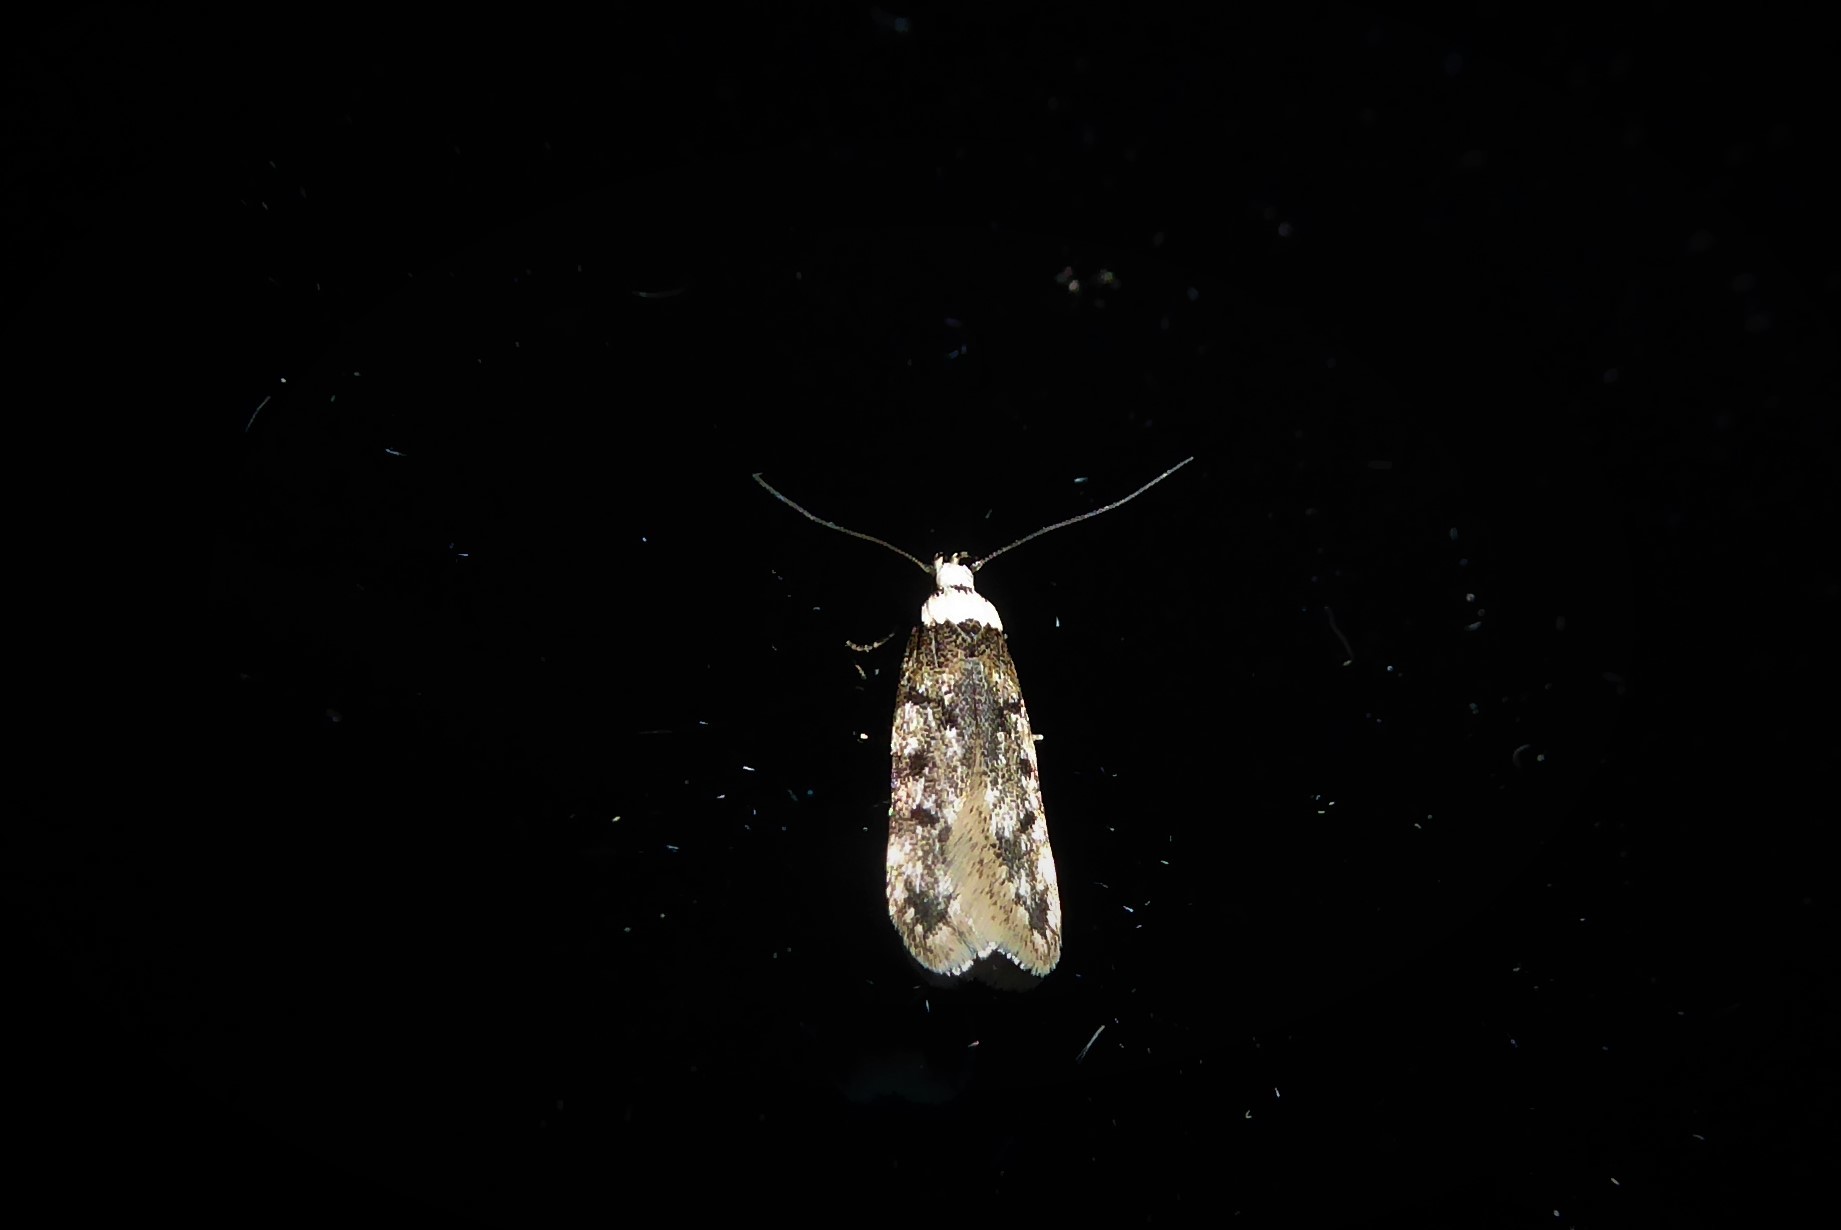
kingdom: Animalia
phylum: Arthropoda
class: Insecta
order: Lepidoptera
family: Oecophoridae
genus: Endrosis
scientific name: Endrosis sarcitrella
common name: White-shouldered house moth
